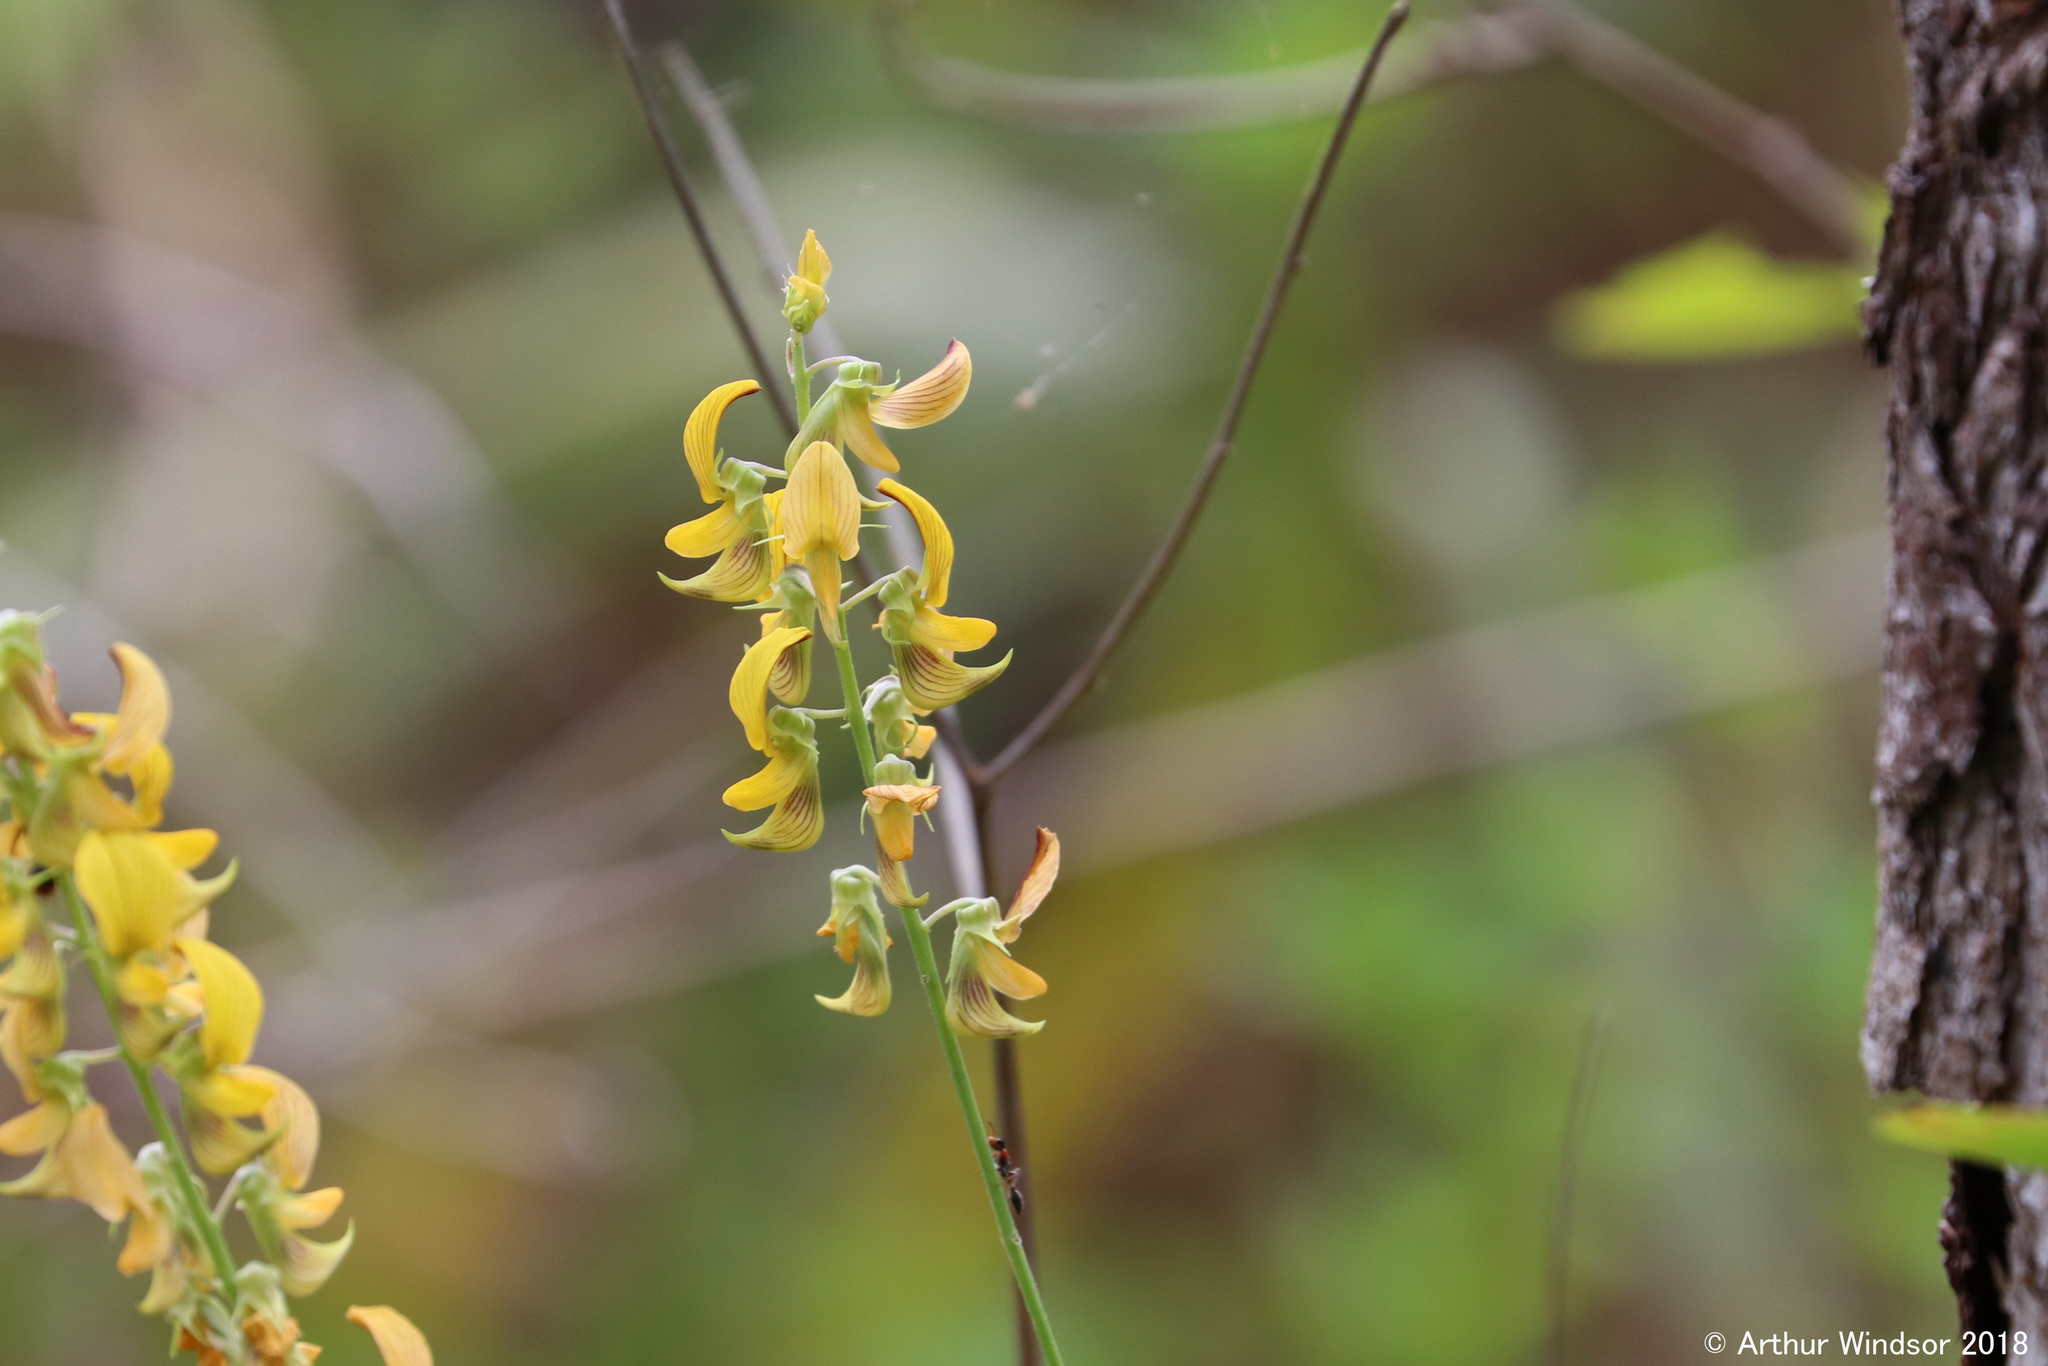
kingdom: Plantae
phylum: Tracheophyta
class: Magnoliopsida
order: Fabales
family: Fabaceae
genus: Crotalaria
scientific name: Crotalaria pallida
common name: Smooth rattlebox
